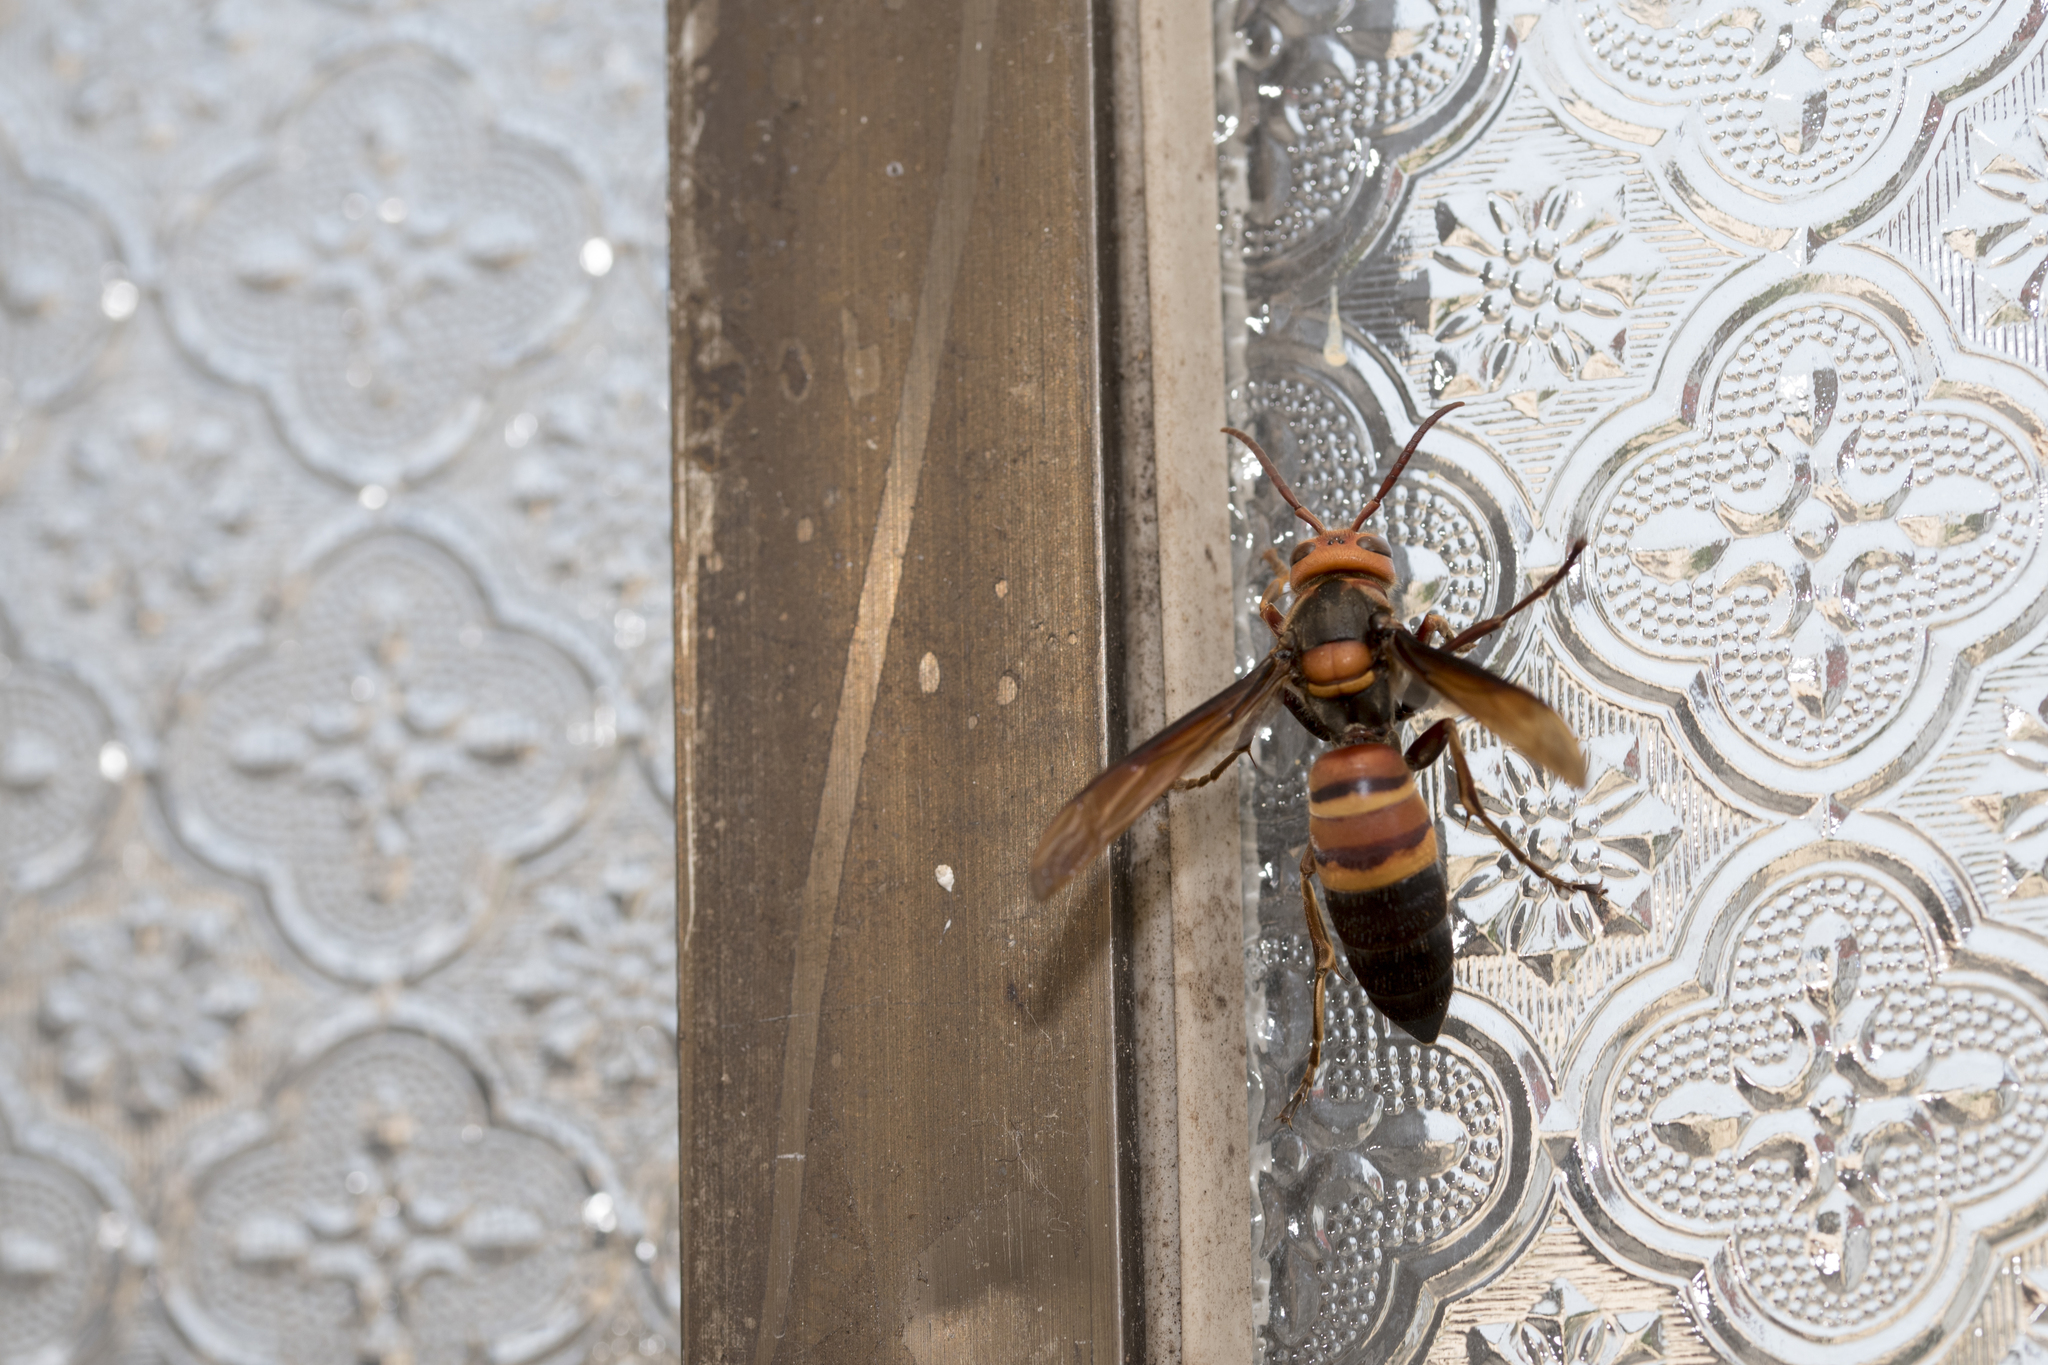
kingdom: Animalia
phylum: Arthropoda
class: Insecta
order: Hymenoptera
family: Vespidae
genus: Vespa
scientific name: Vespa ducalis
